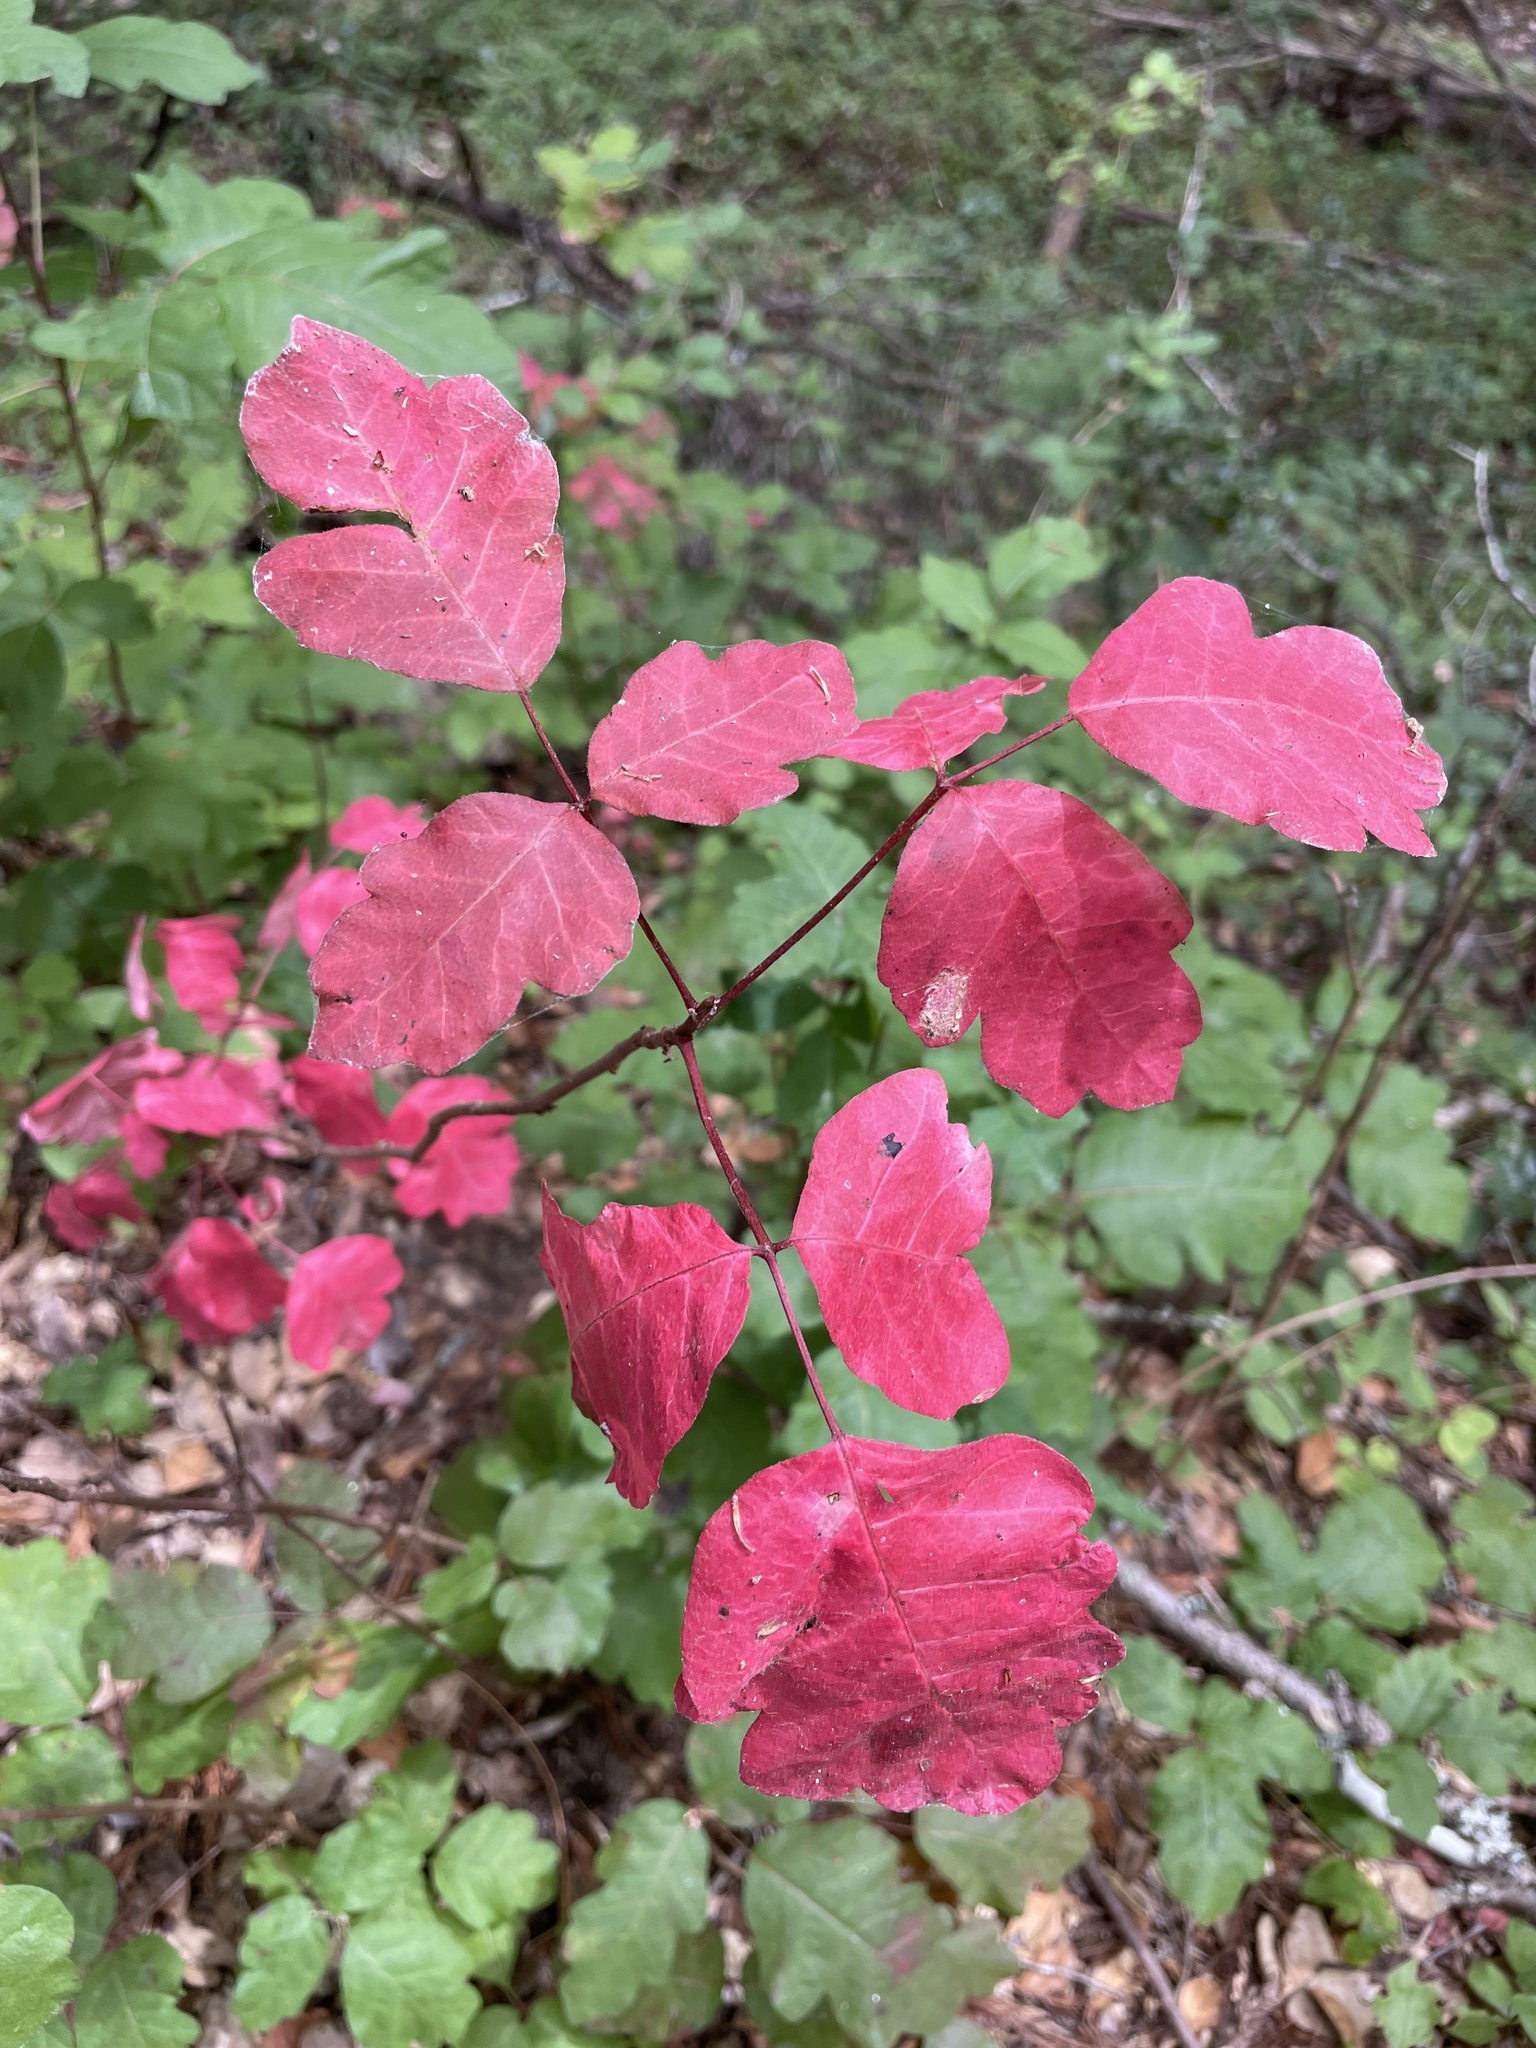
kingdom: Plantae
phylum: Tracheophyta
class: Magnoliopsida
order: Sapindales
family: Anacardiaceae
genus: Toxicodendron
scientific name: Toxicodendron diversilobum
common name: Pacific poison-oak
